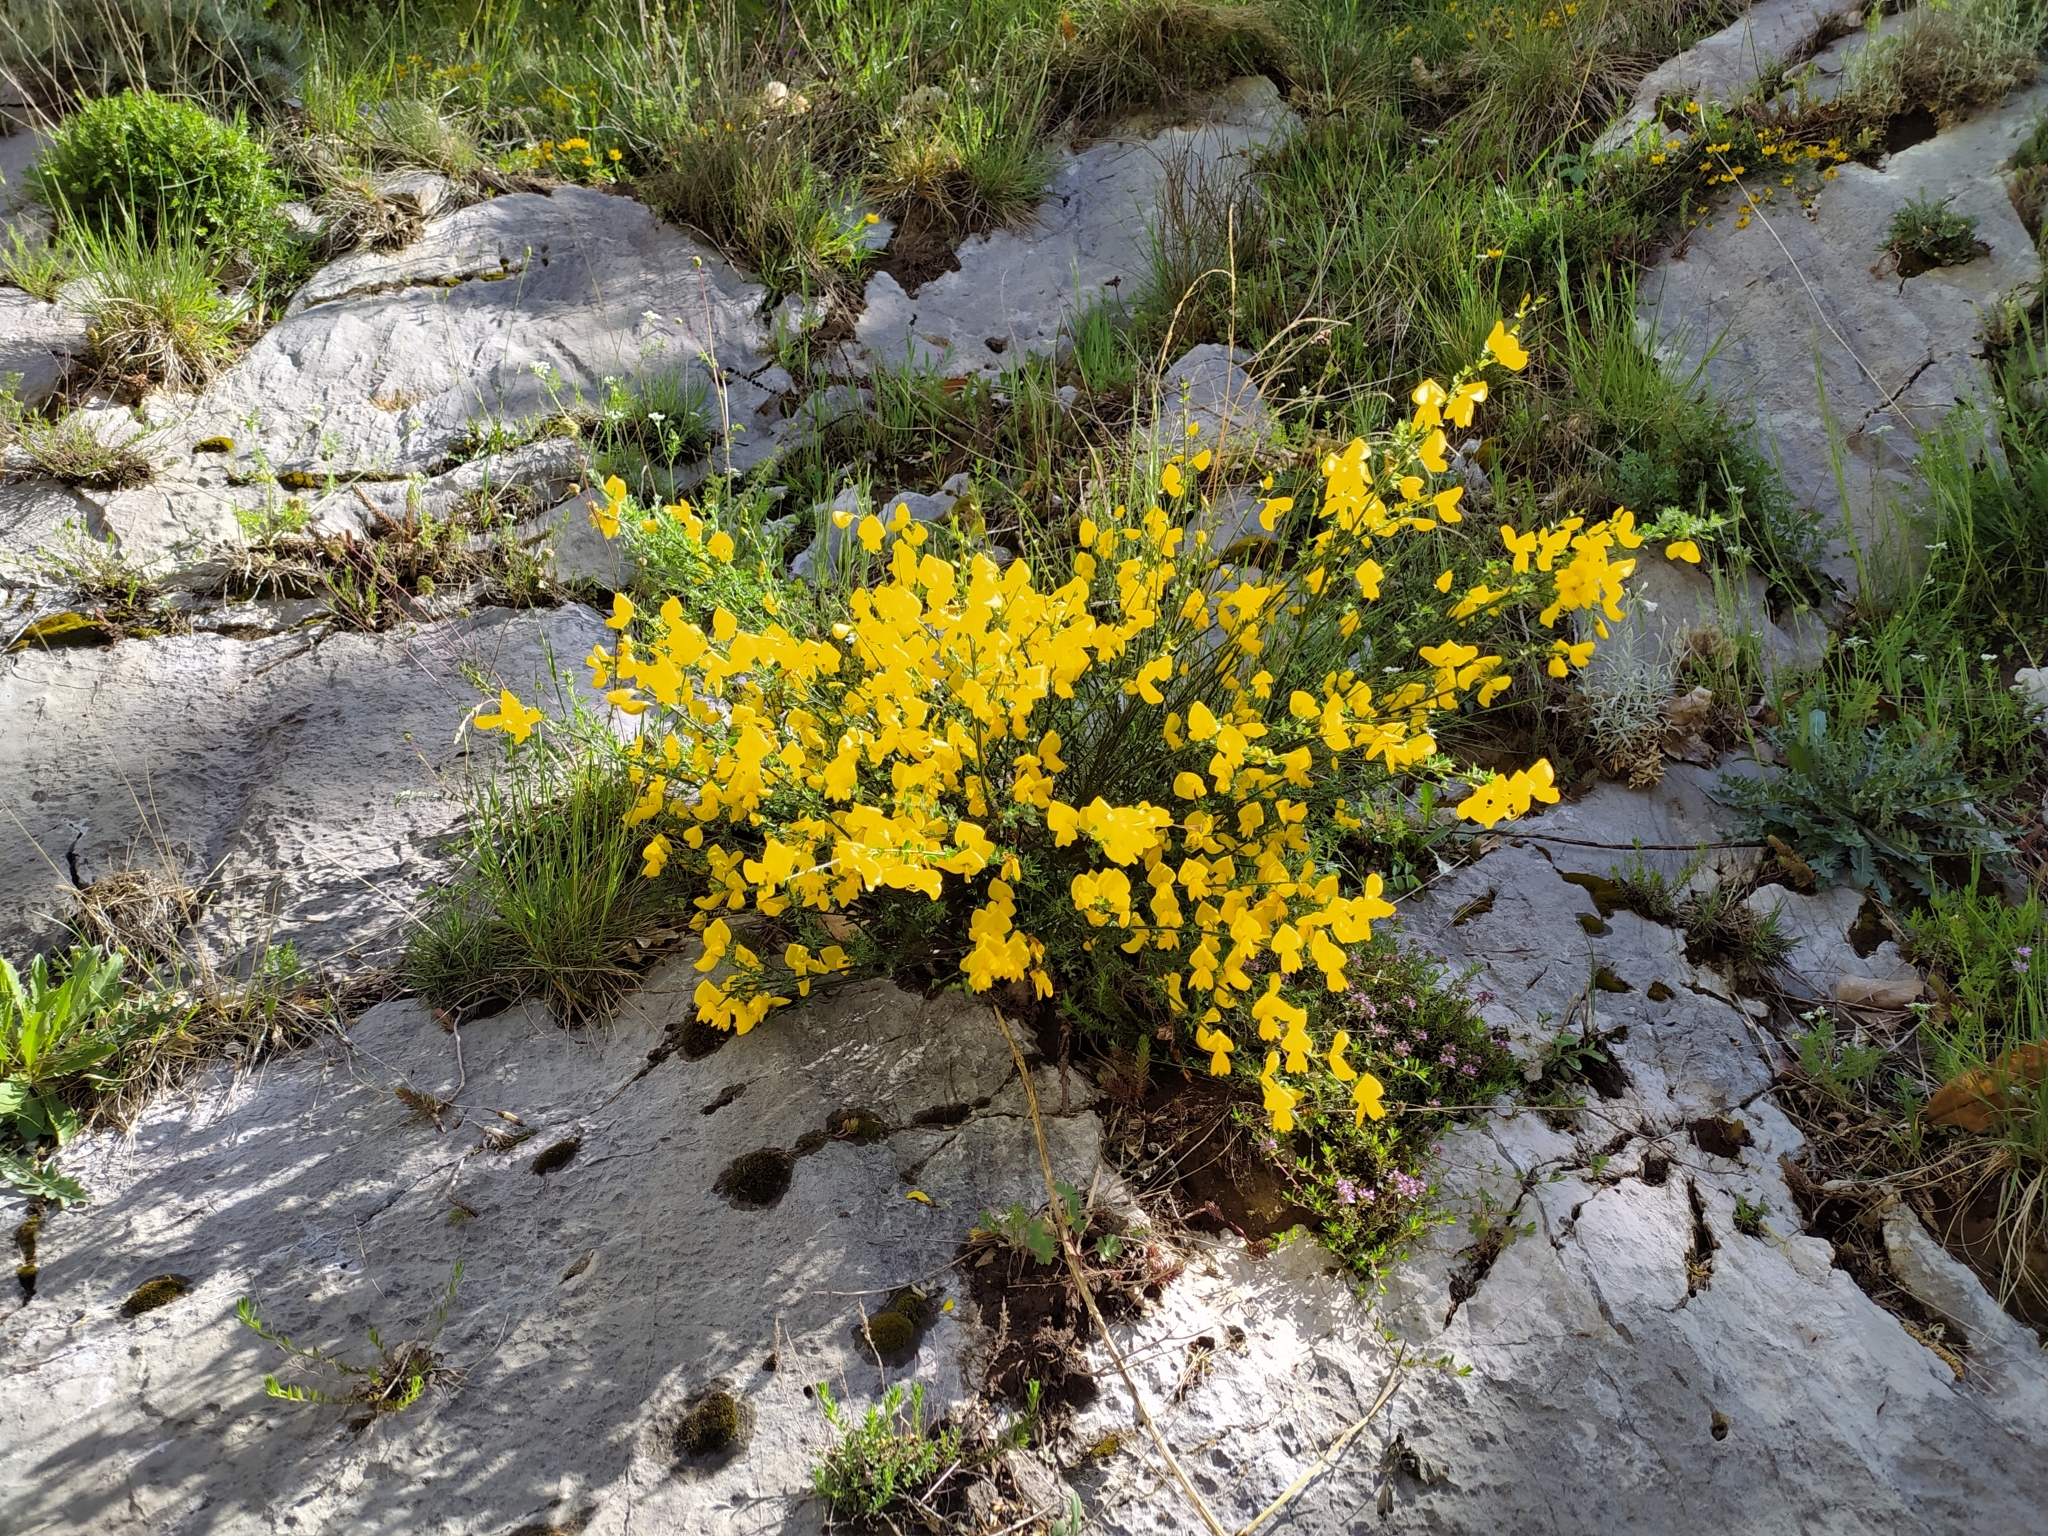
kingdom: Plantae
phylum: Tracheophyta
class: Magnoliopsida
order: Fabales
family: Fabaceae
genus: Cytisus
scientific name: Cytisus scoparius
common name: Scotch broom
